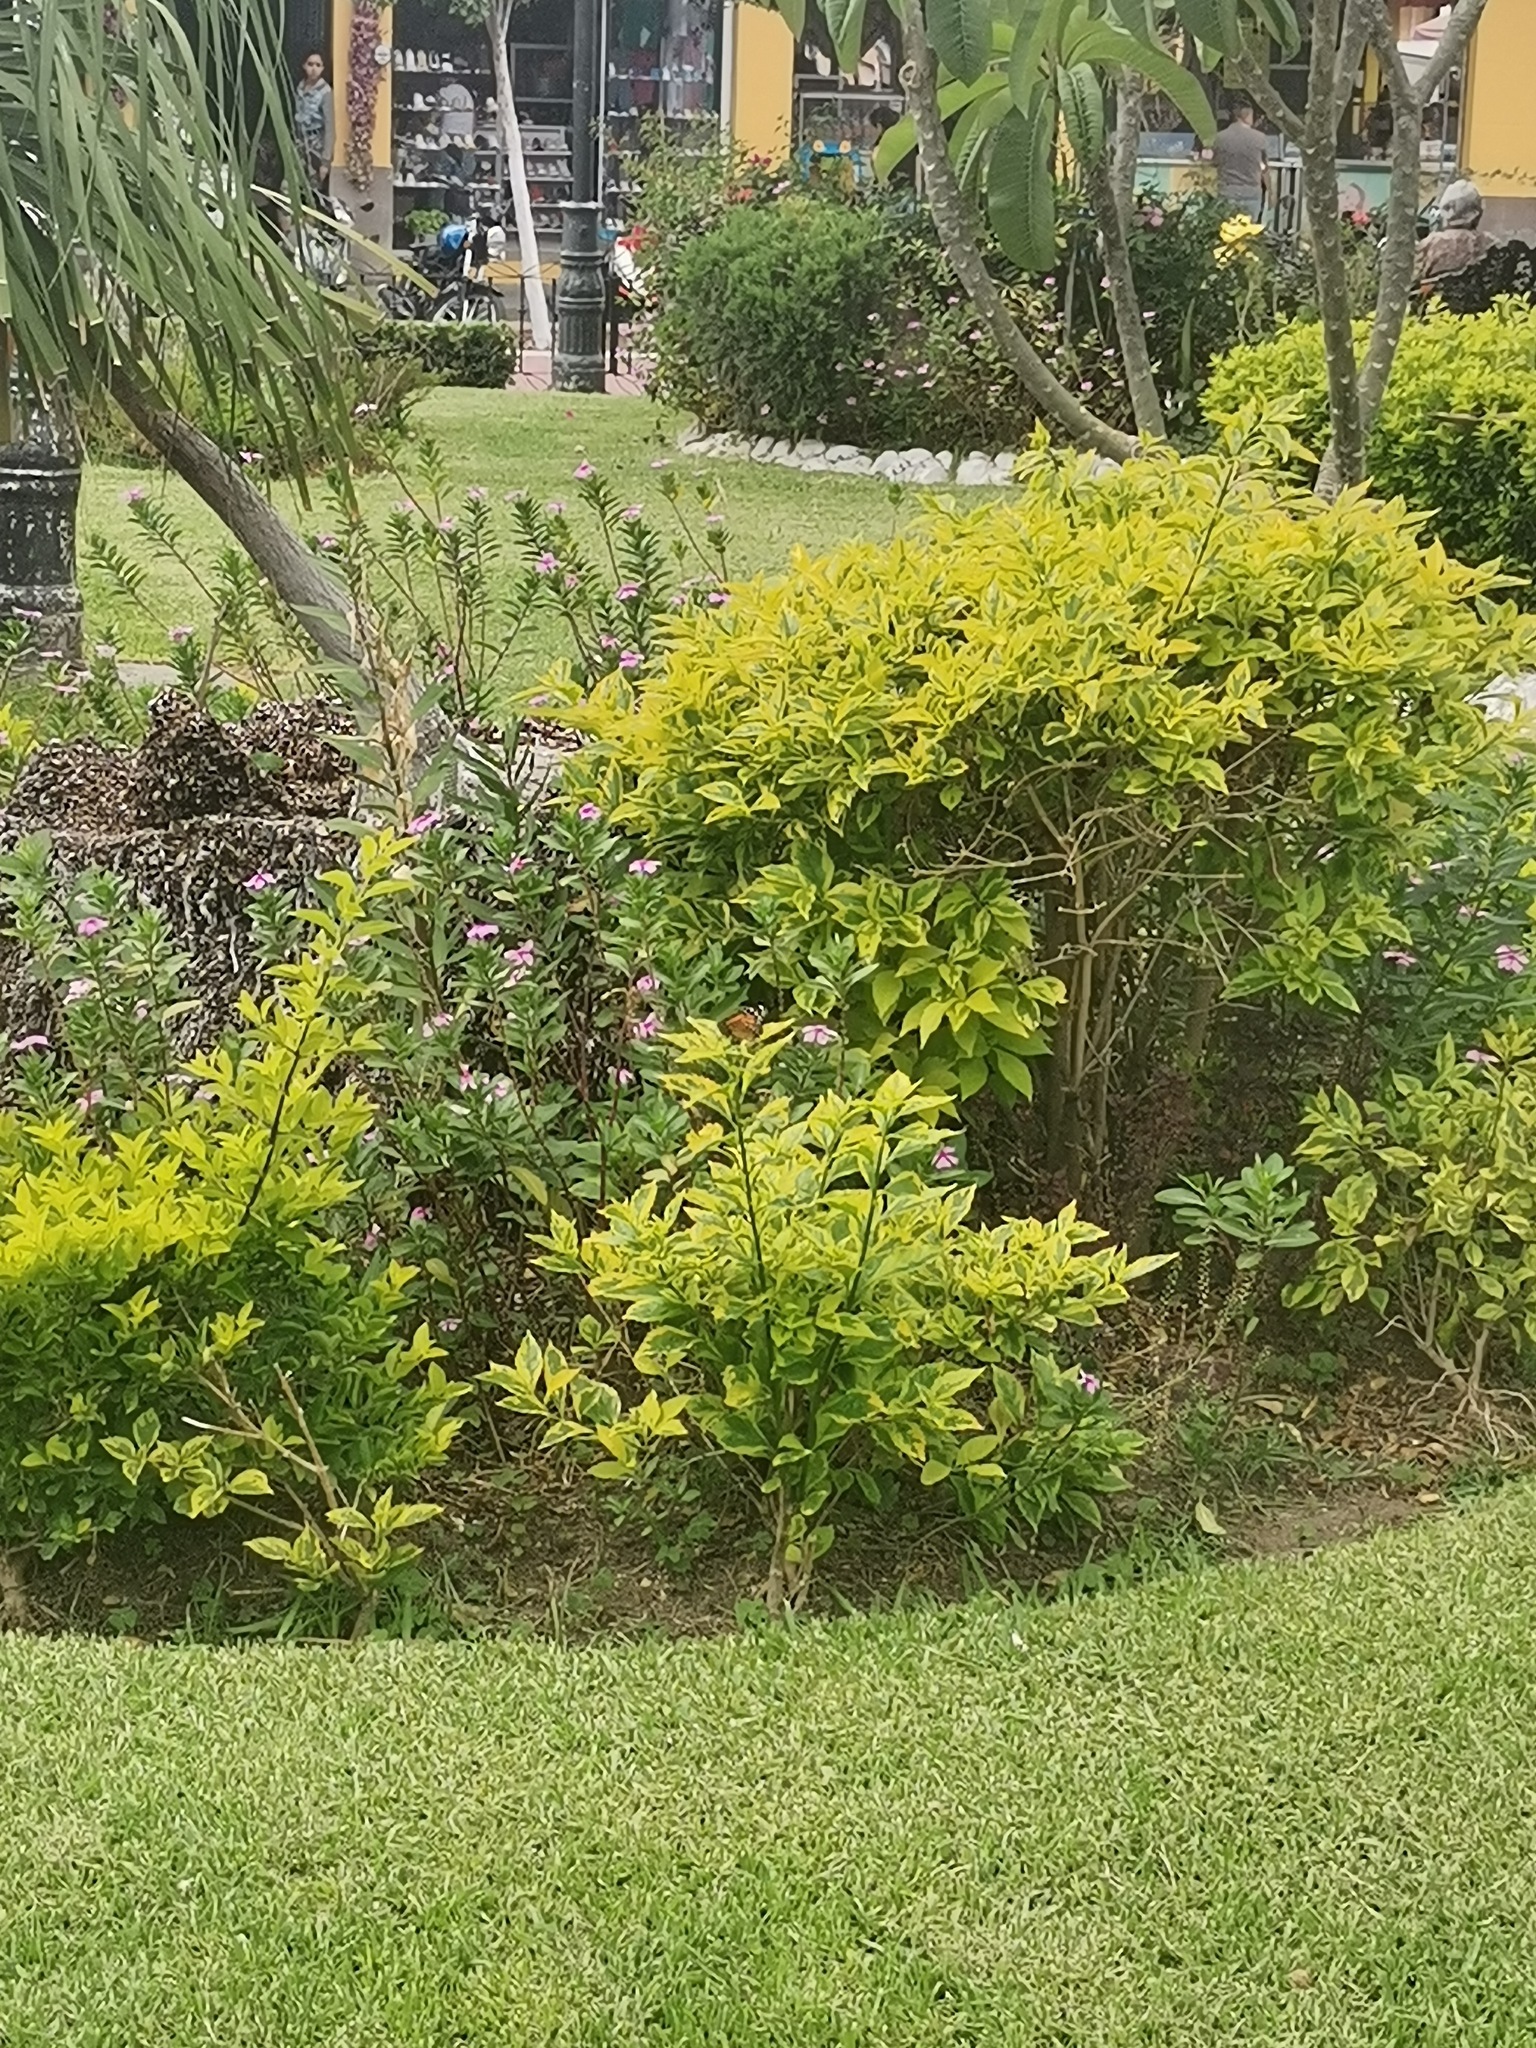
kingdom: Animalia
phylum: Arthropoda
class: Insecta
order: Lepidoptera
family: Nymphalidae
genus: Danaus
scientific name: Danaus plexippus
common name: Monarch
